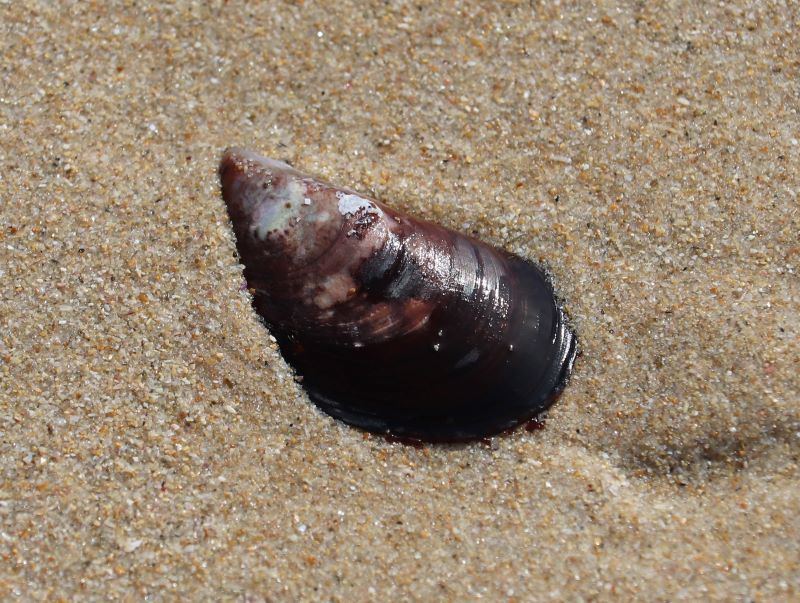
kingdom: Animalia
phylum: Mollusca
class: Bivalvia
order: Mytilida
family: Mytilidae
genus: Perna
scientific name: Perna perna
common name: Mexilhao mussel
